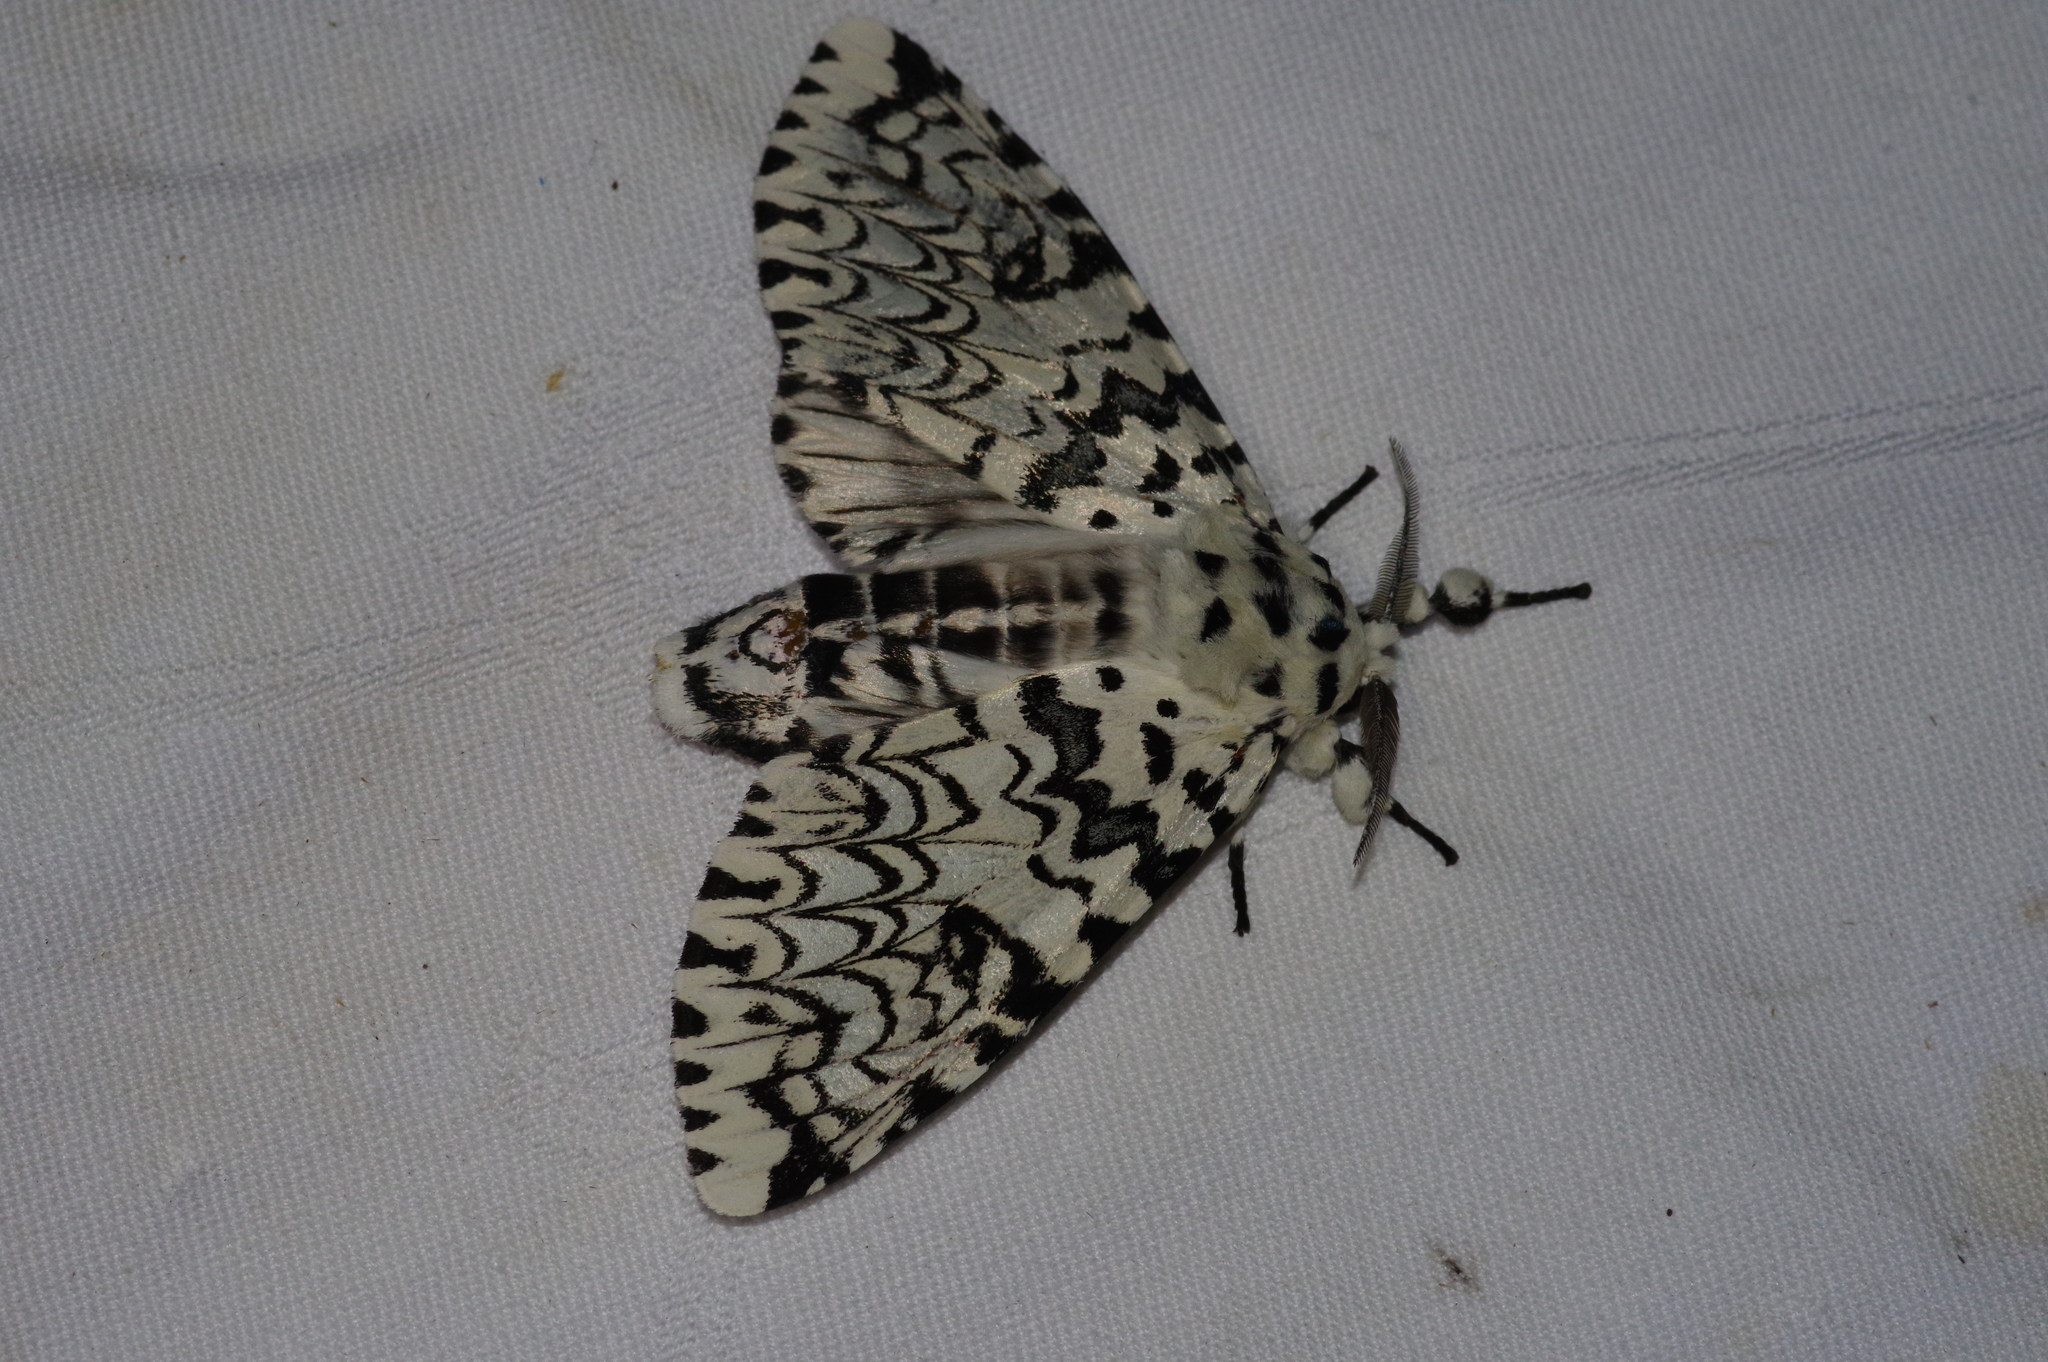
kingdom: Animalia
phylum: Arthropoda
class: Insecta
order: Lepidoptera
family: Notodontidae
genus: Kamalia
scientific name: Kamalia tattakana
